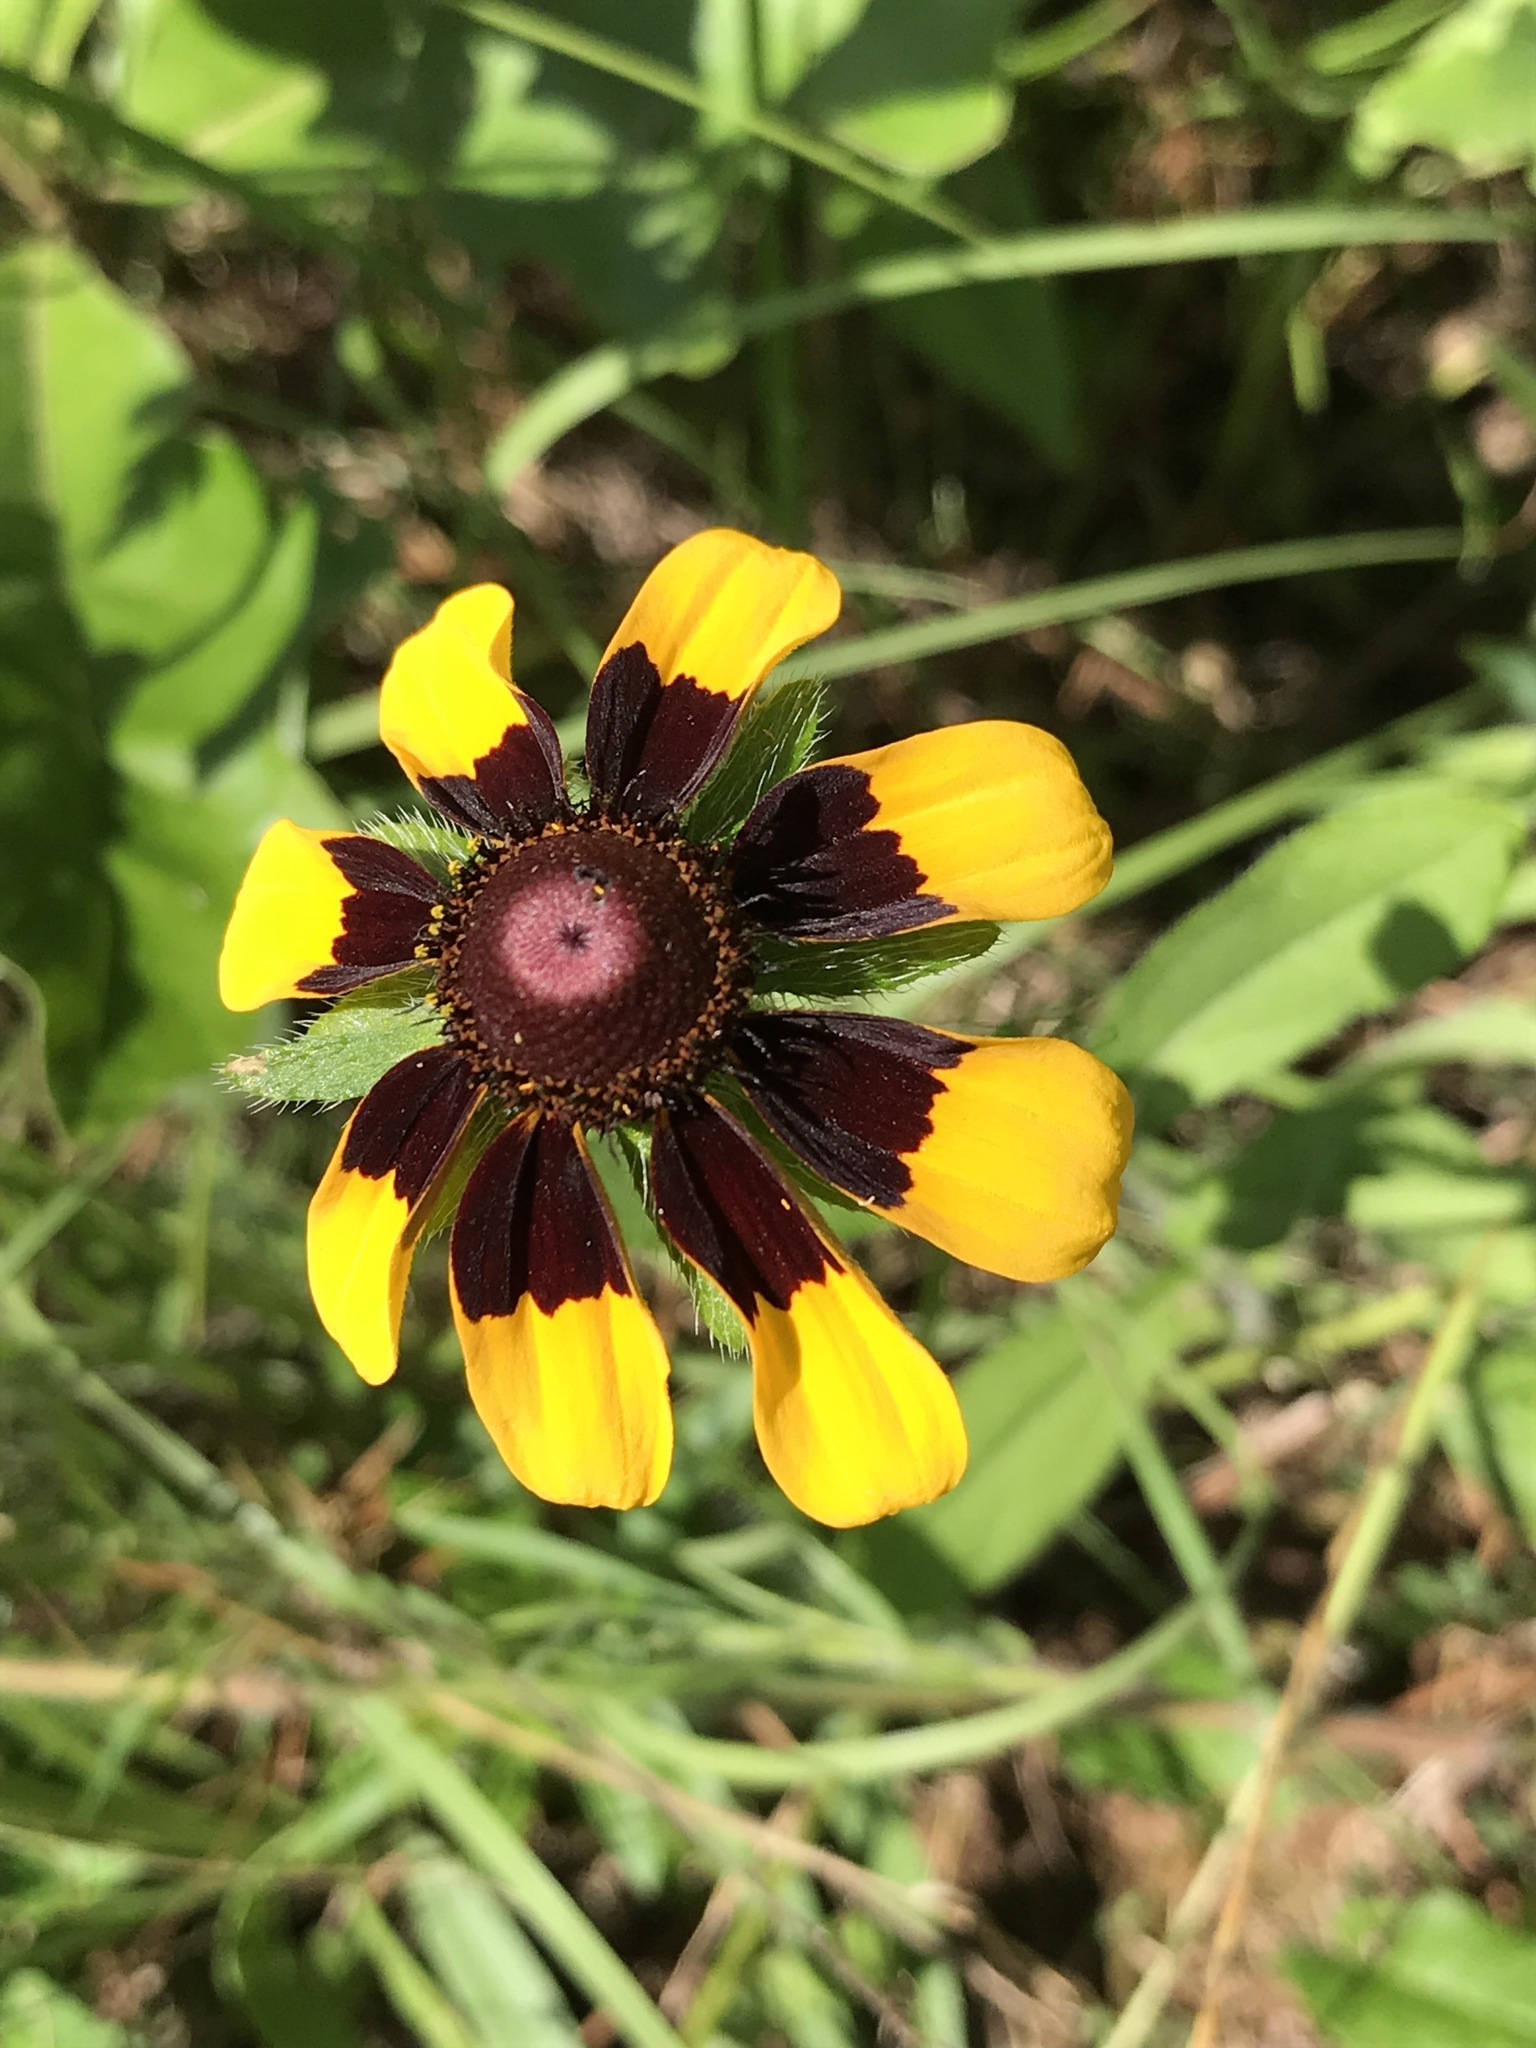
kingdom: Plantae
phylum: Tracheophyta
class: Magnoliopsida
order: Asterales
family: Asteraceae
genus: Rudbeckia
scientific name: Rudbeckia hirta
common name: Black-eyed-susan
